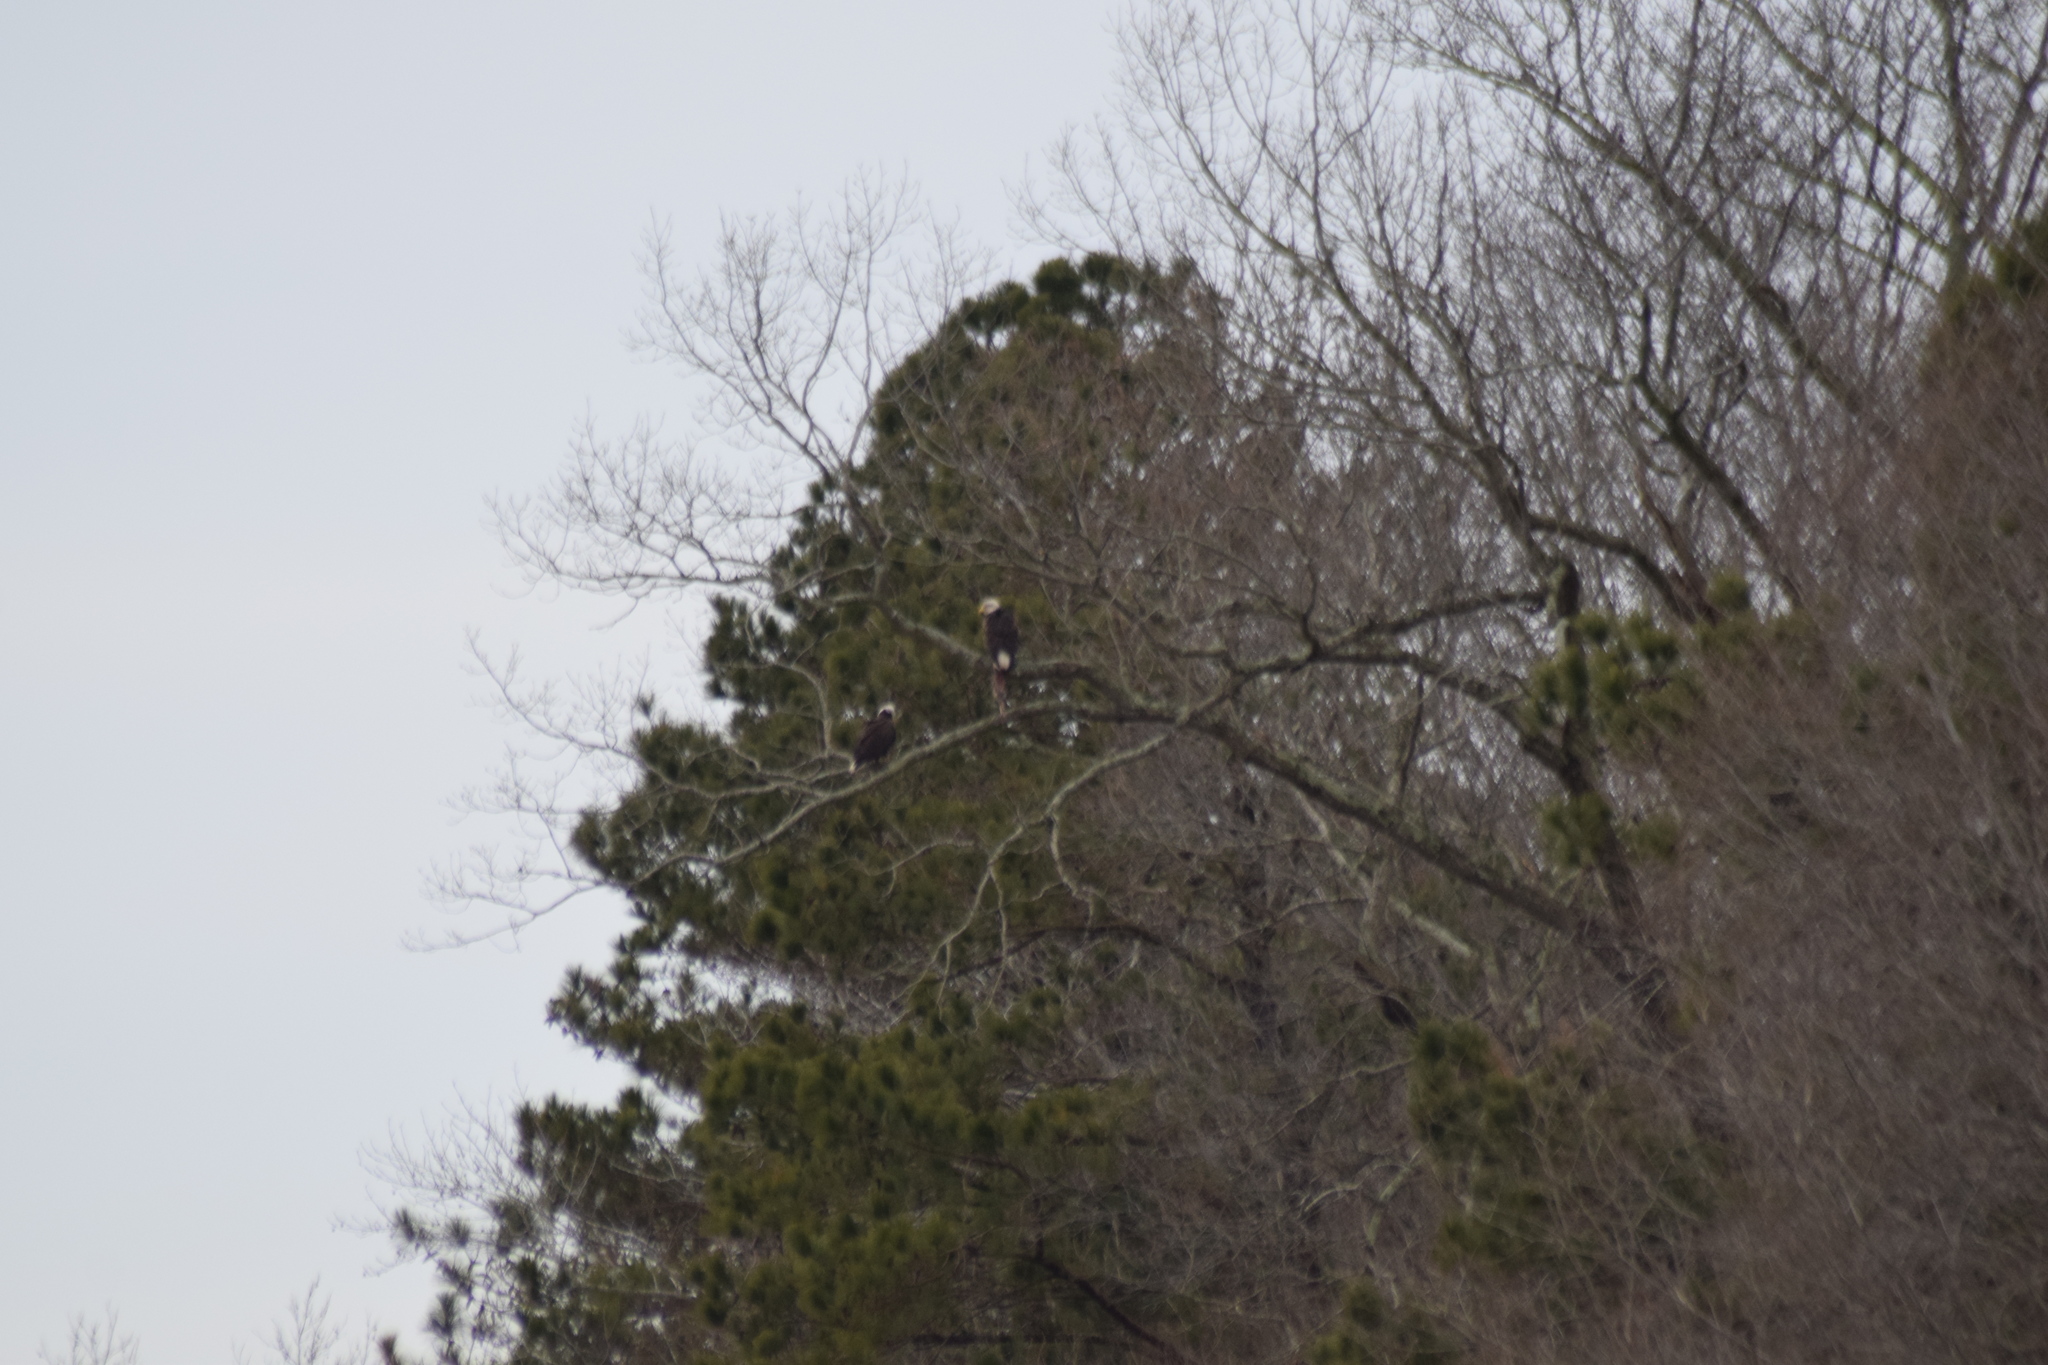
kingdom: Animalia
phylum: Chordata
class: Aves
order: Accipitriformes
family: Accipitridae
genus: Haliaeetus
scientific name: Haliaeetus leucocephalus
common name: Bald eagle
